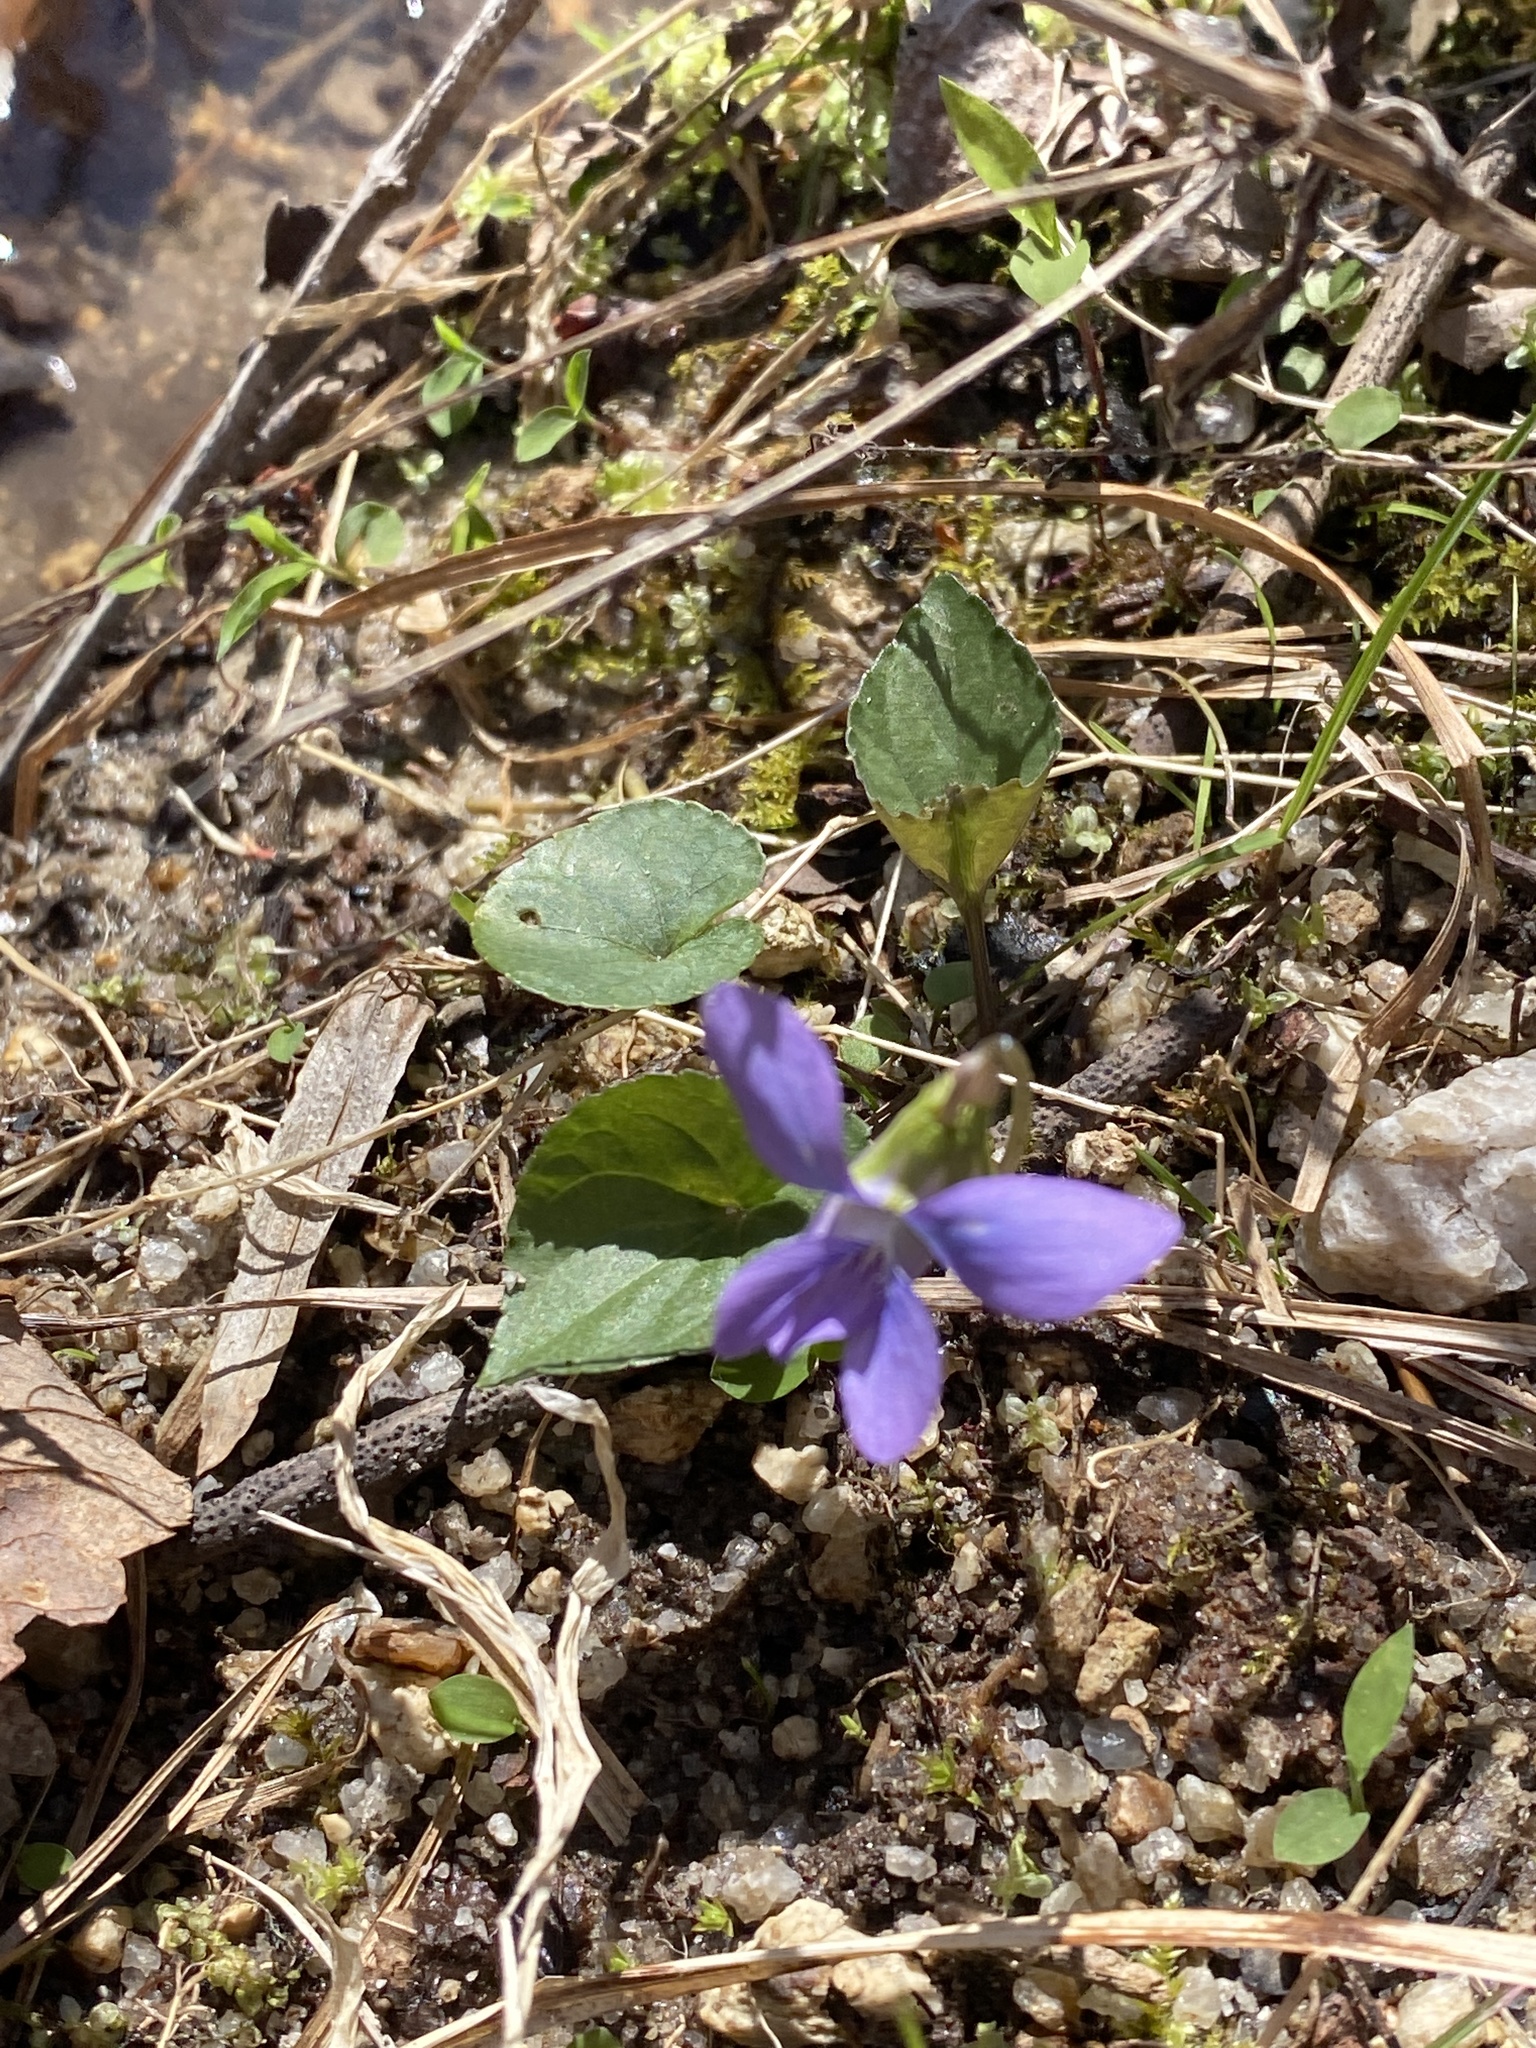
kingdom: Plantae
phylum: Tracheophyta
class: Magnoliopsida
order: Malpighiales
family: Violaceae
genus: Viola
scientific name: Viola sororia
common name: Dooryard violet
